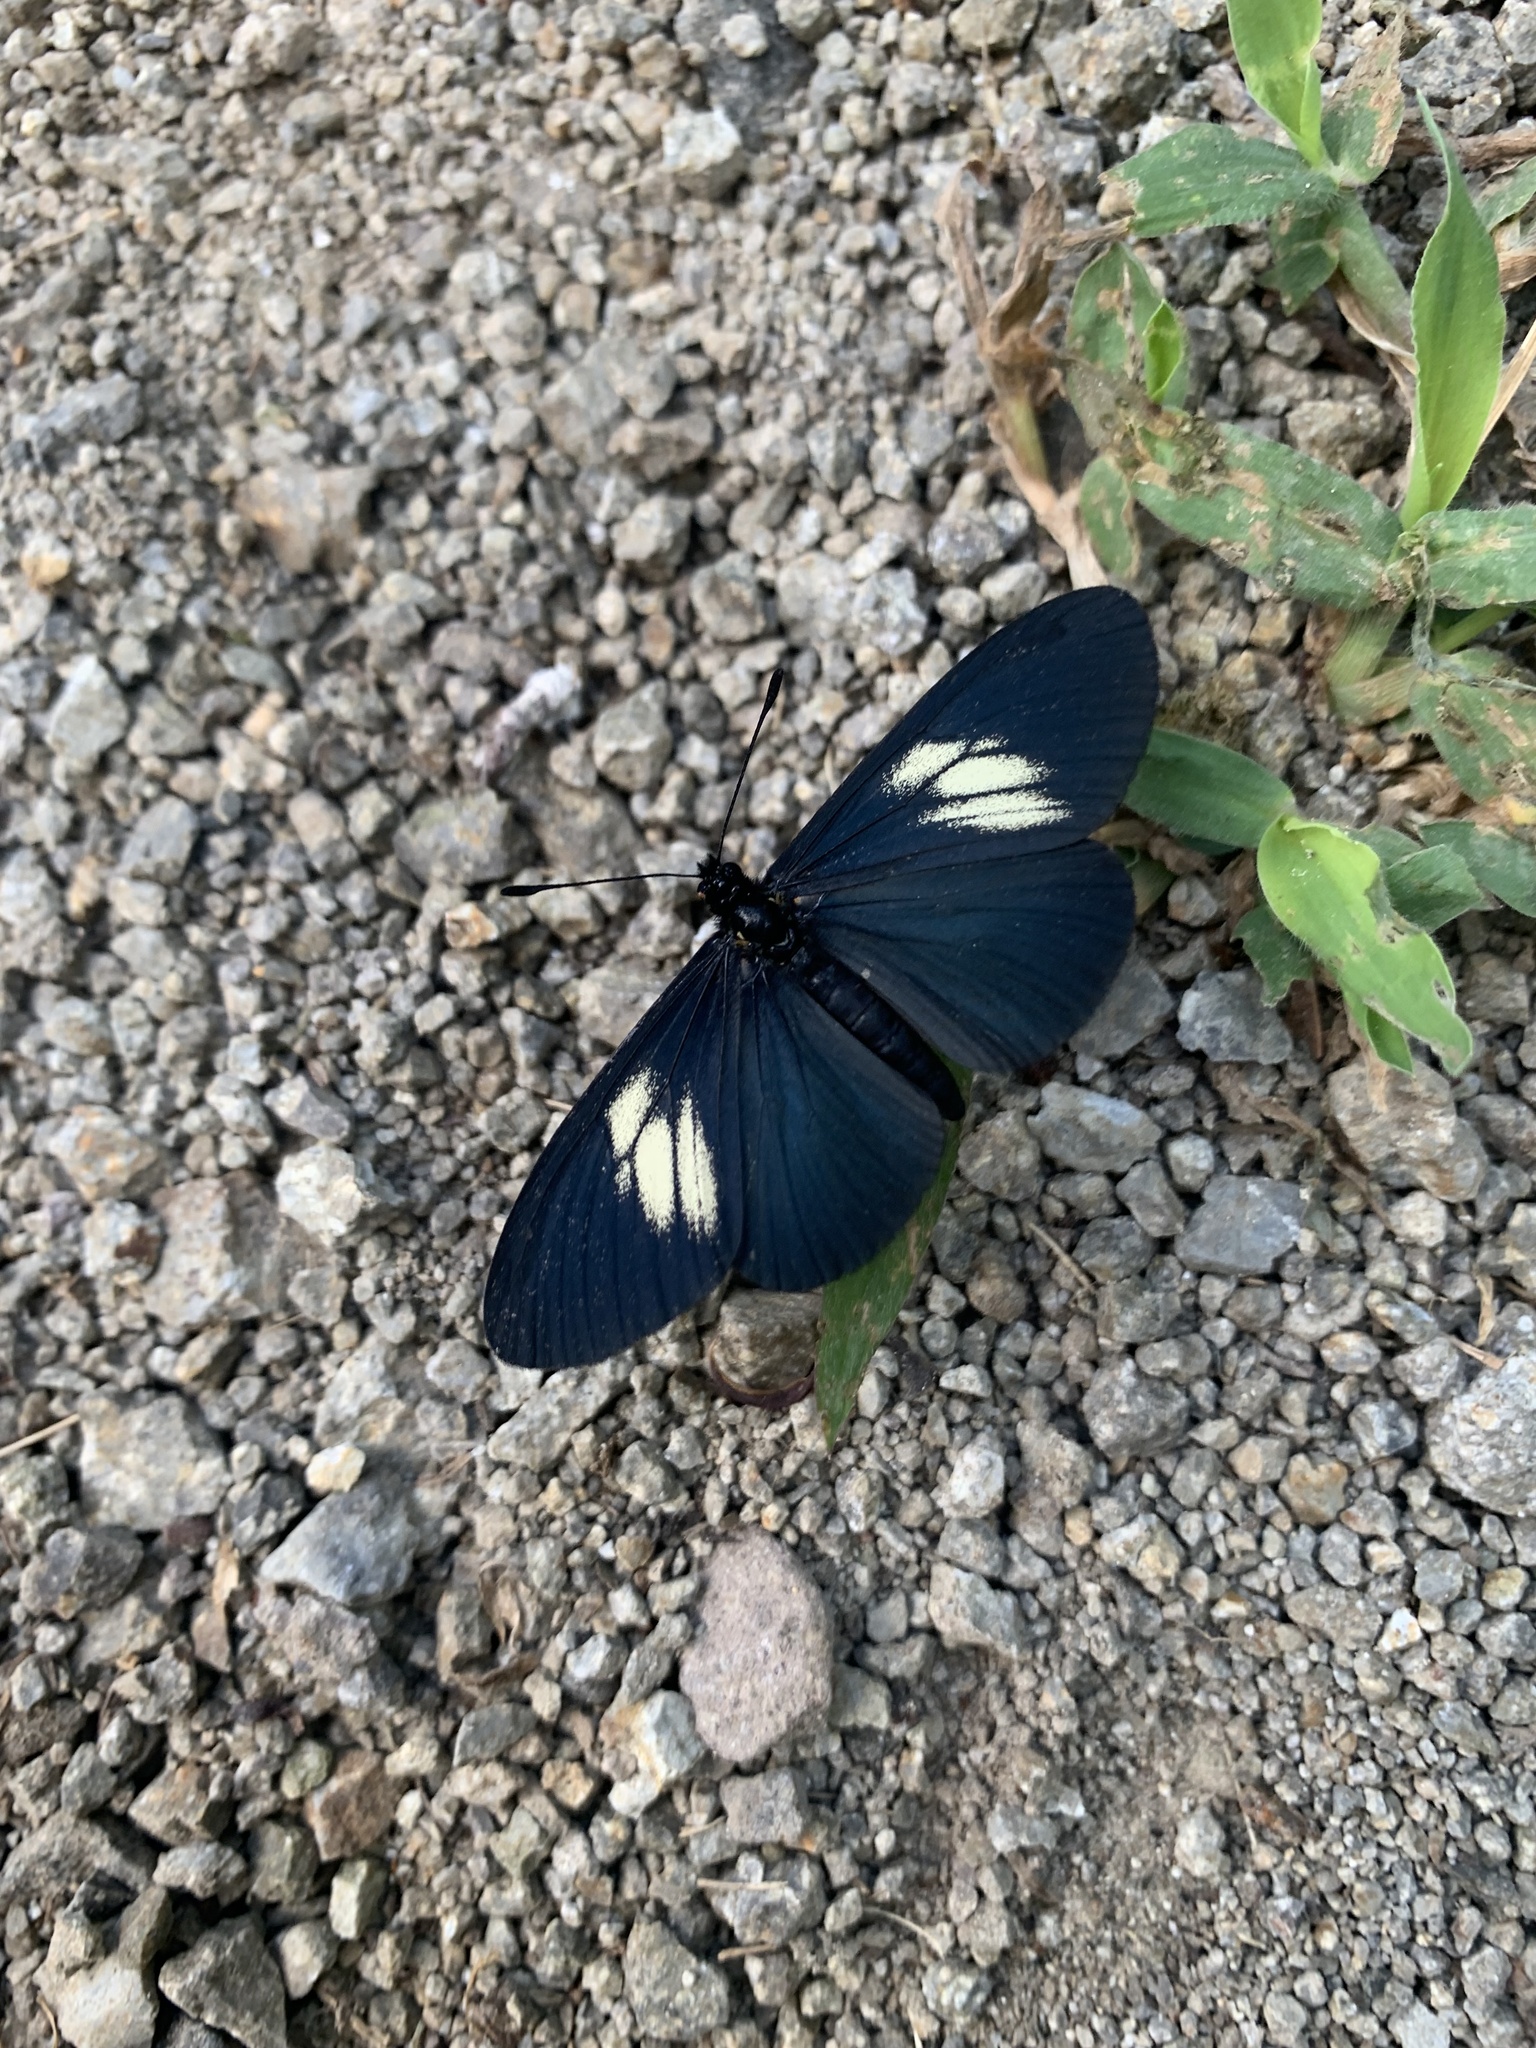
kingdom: Animalia
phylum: Arthropoda
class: Insecta
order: Lepidoptera
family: Nymphalidae
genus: Acraea
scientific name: Acraea Altinote ozomene
